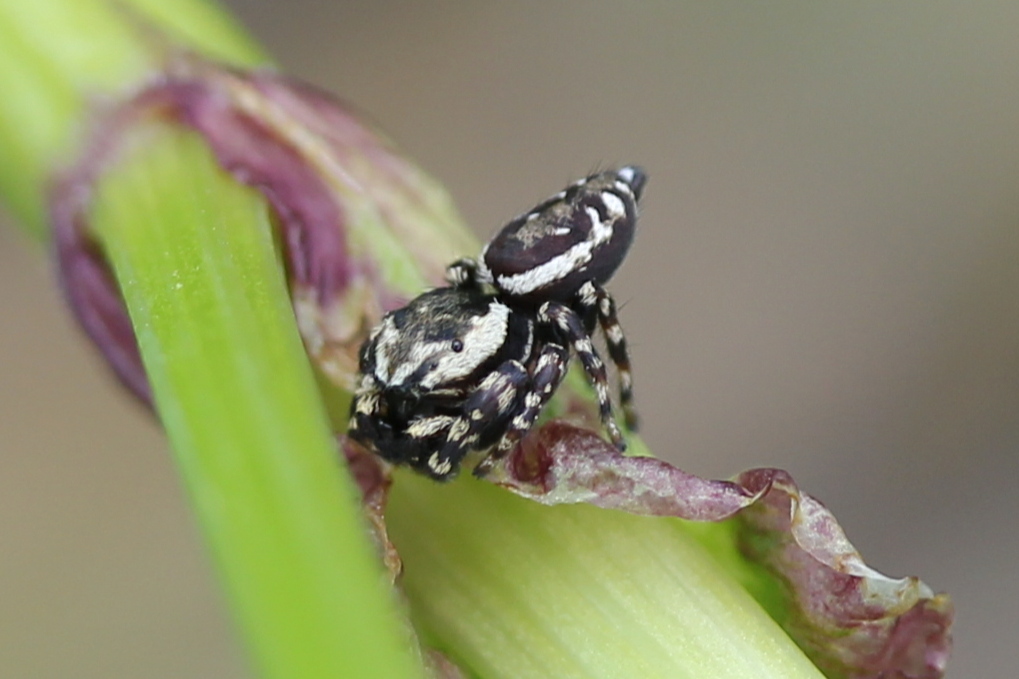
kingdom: Animalia
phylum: Arthropoda
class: Arachnida
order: Araneae
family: Salticidae
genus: Pelegrina
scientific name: Pelegrina galathea
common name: Jumping spiders
